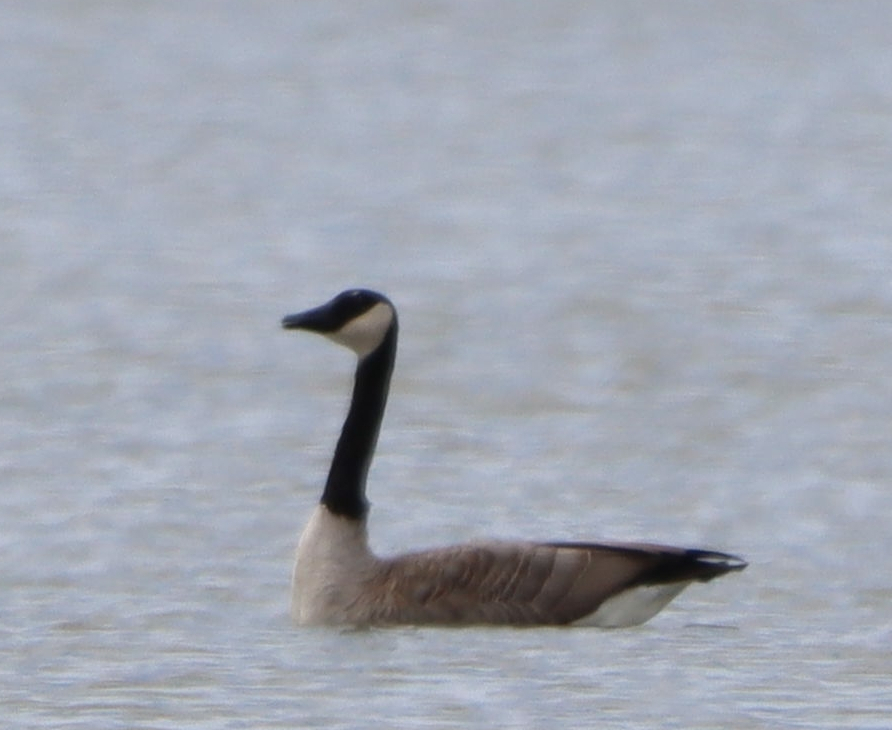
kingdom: Animalia
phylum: Chordata
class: Aves
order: Anseriformes
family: Anatidae
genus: Branta
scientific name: Branta canadensis
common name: Canada goose
